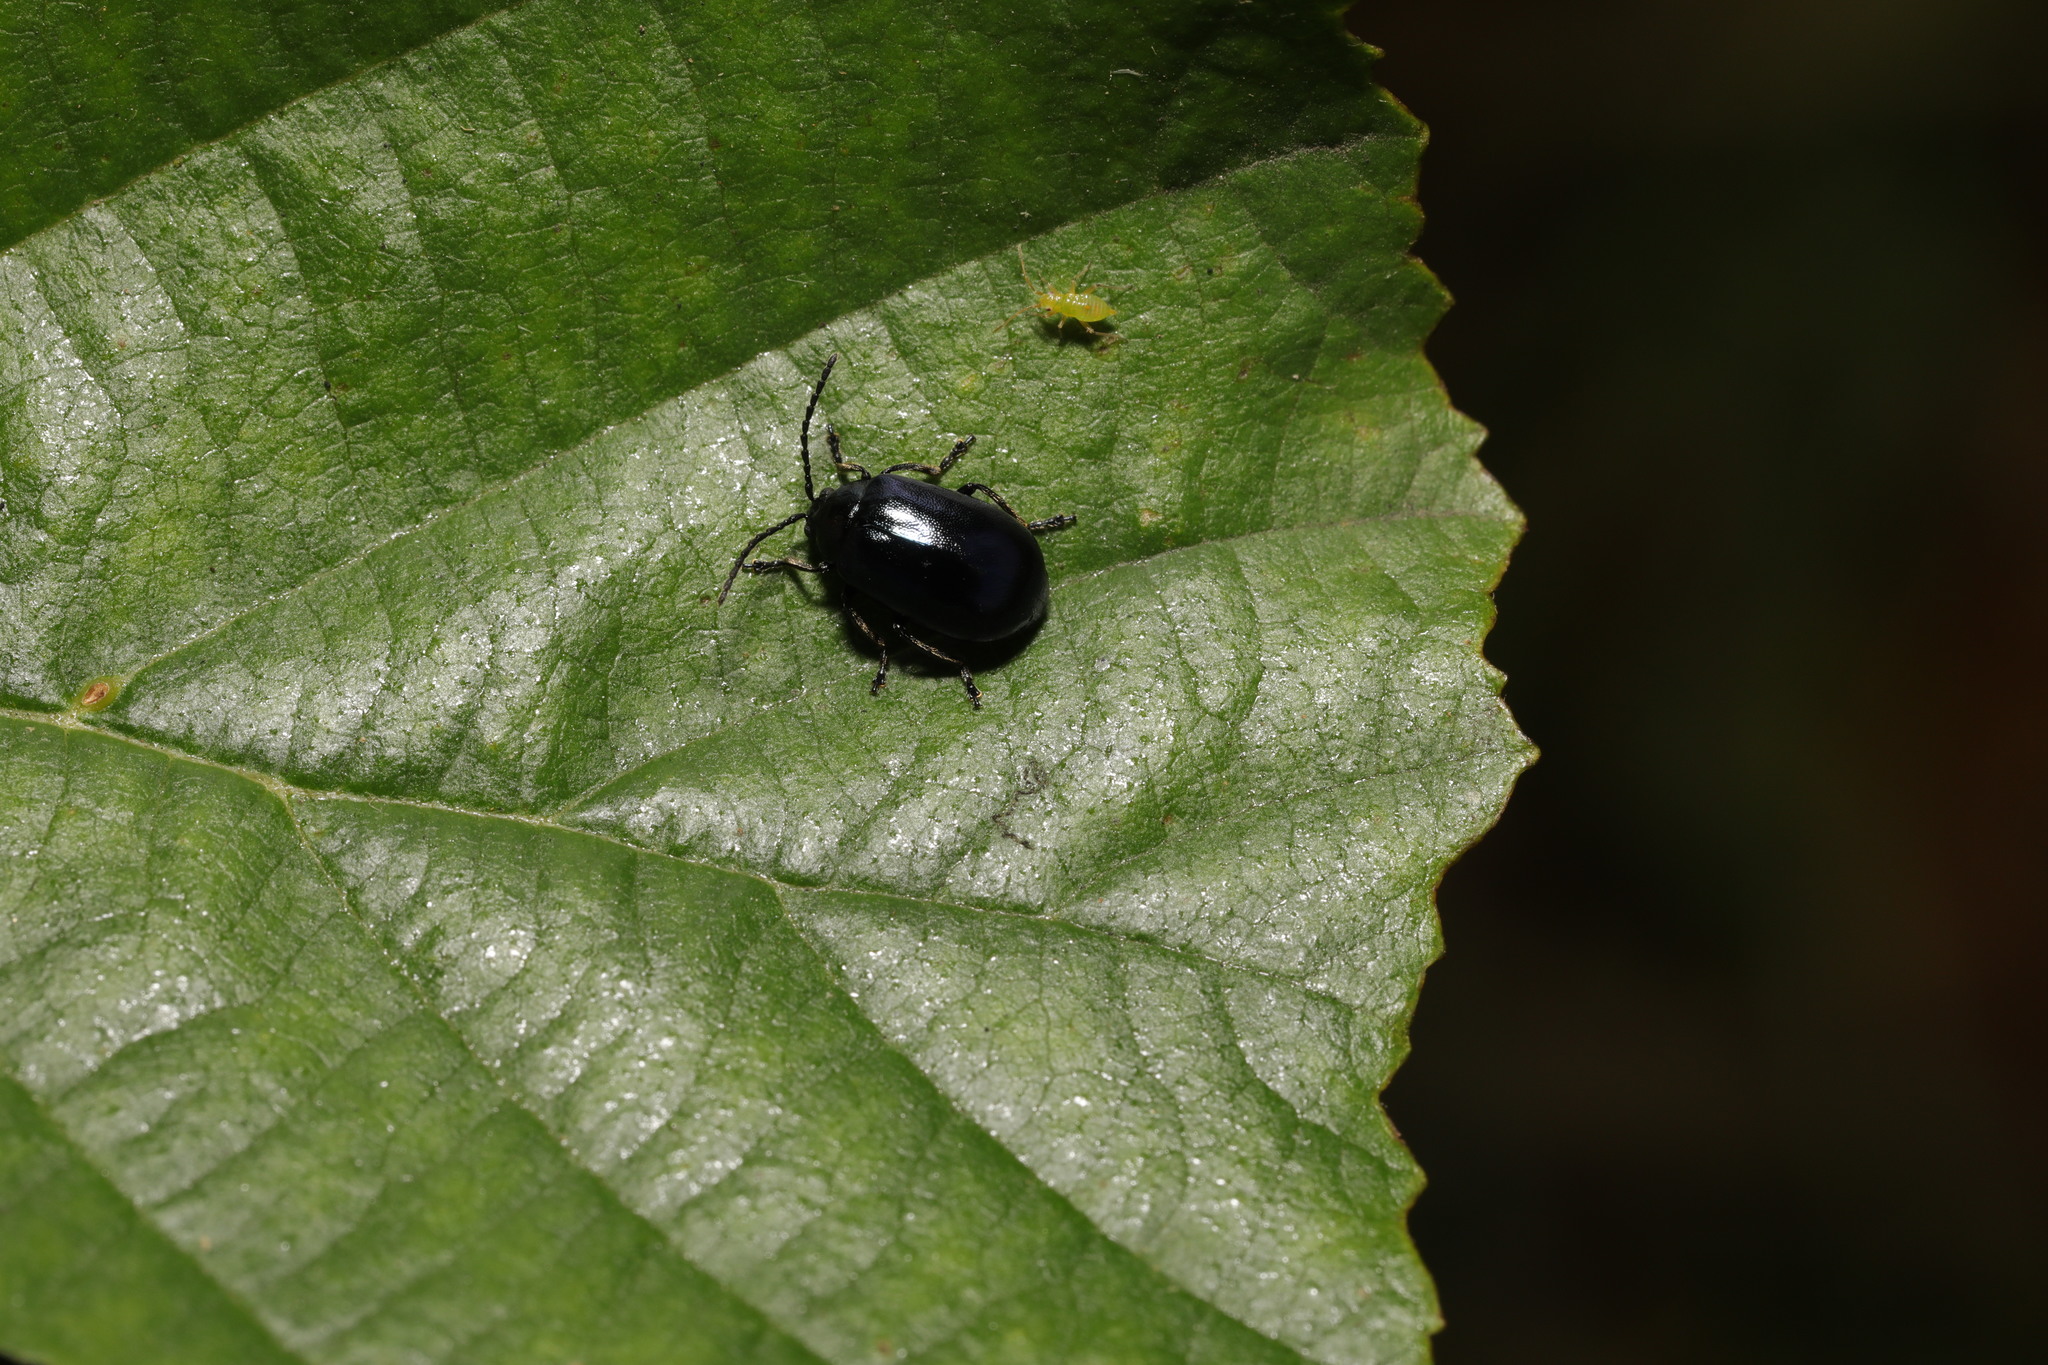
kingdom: Animalia
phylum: Arthropoda
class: Insecta
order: Coleoptera
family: Chrysomelidae
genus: Agelastica
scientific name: Agelastica alni
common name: Alder leaf beetle
